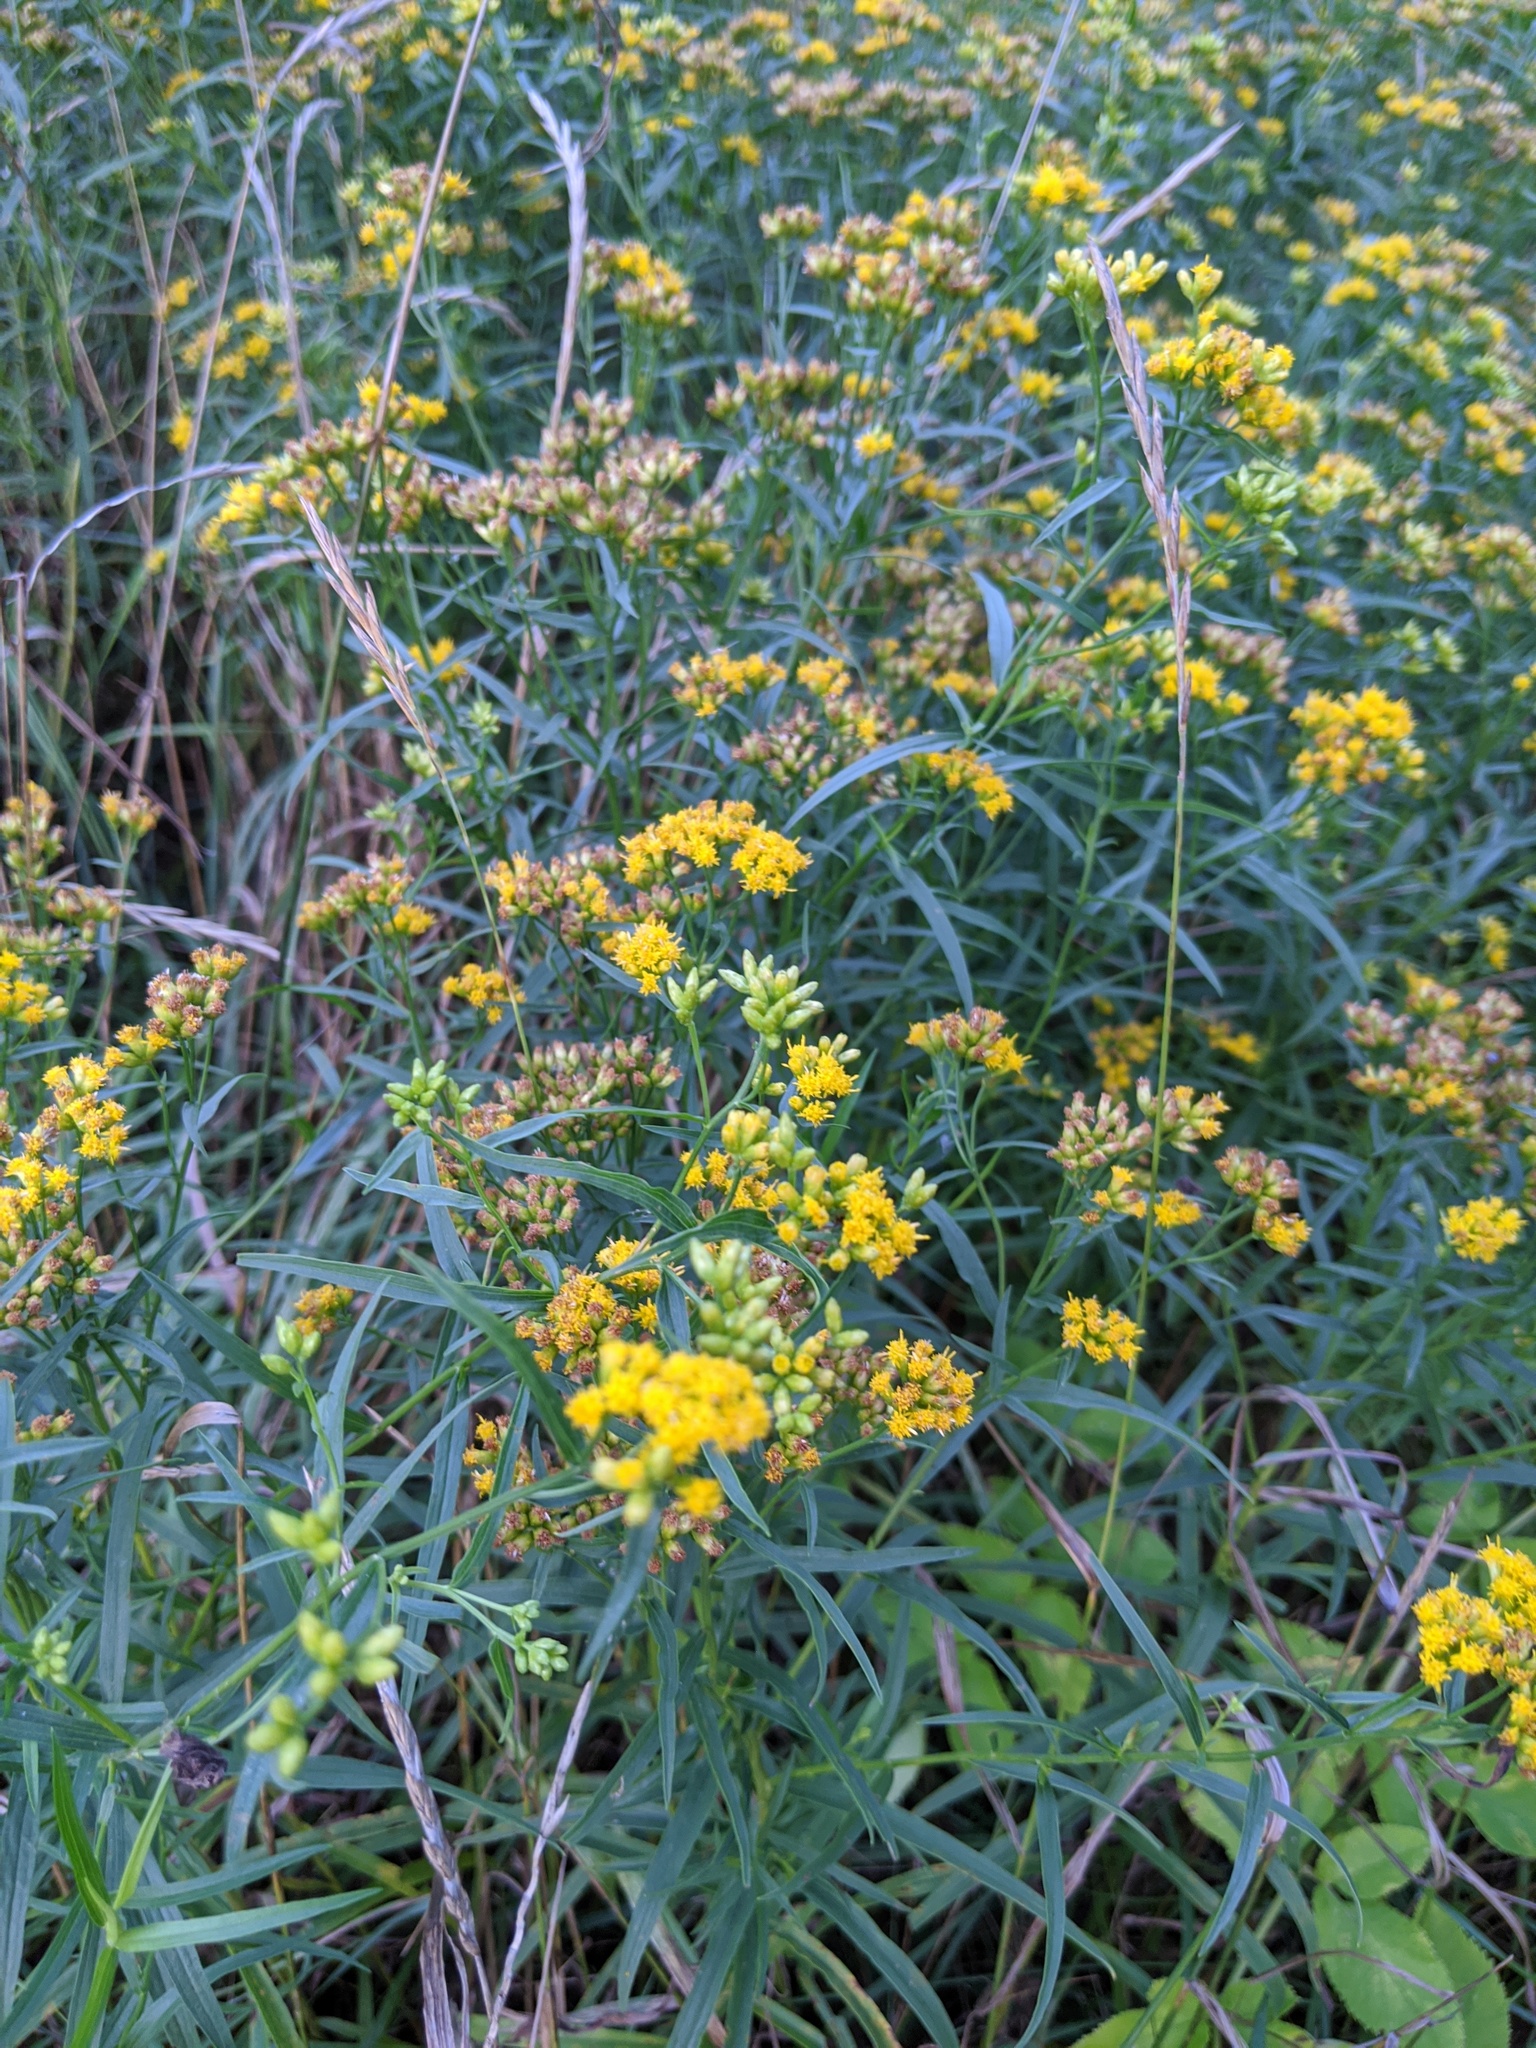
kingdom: Plantae
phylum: Tracheophyta
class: Magnoliopsida
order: Asterales
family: Asteraceae
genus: Euthamia
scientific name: Euthamia graminifolia
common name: Common goldentop
